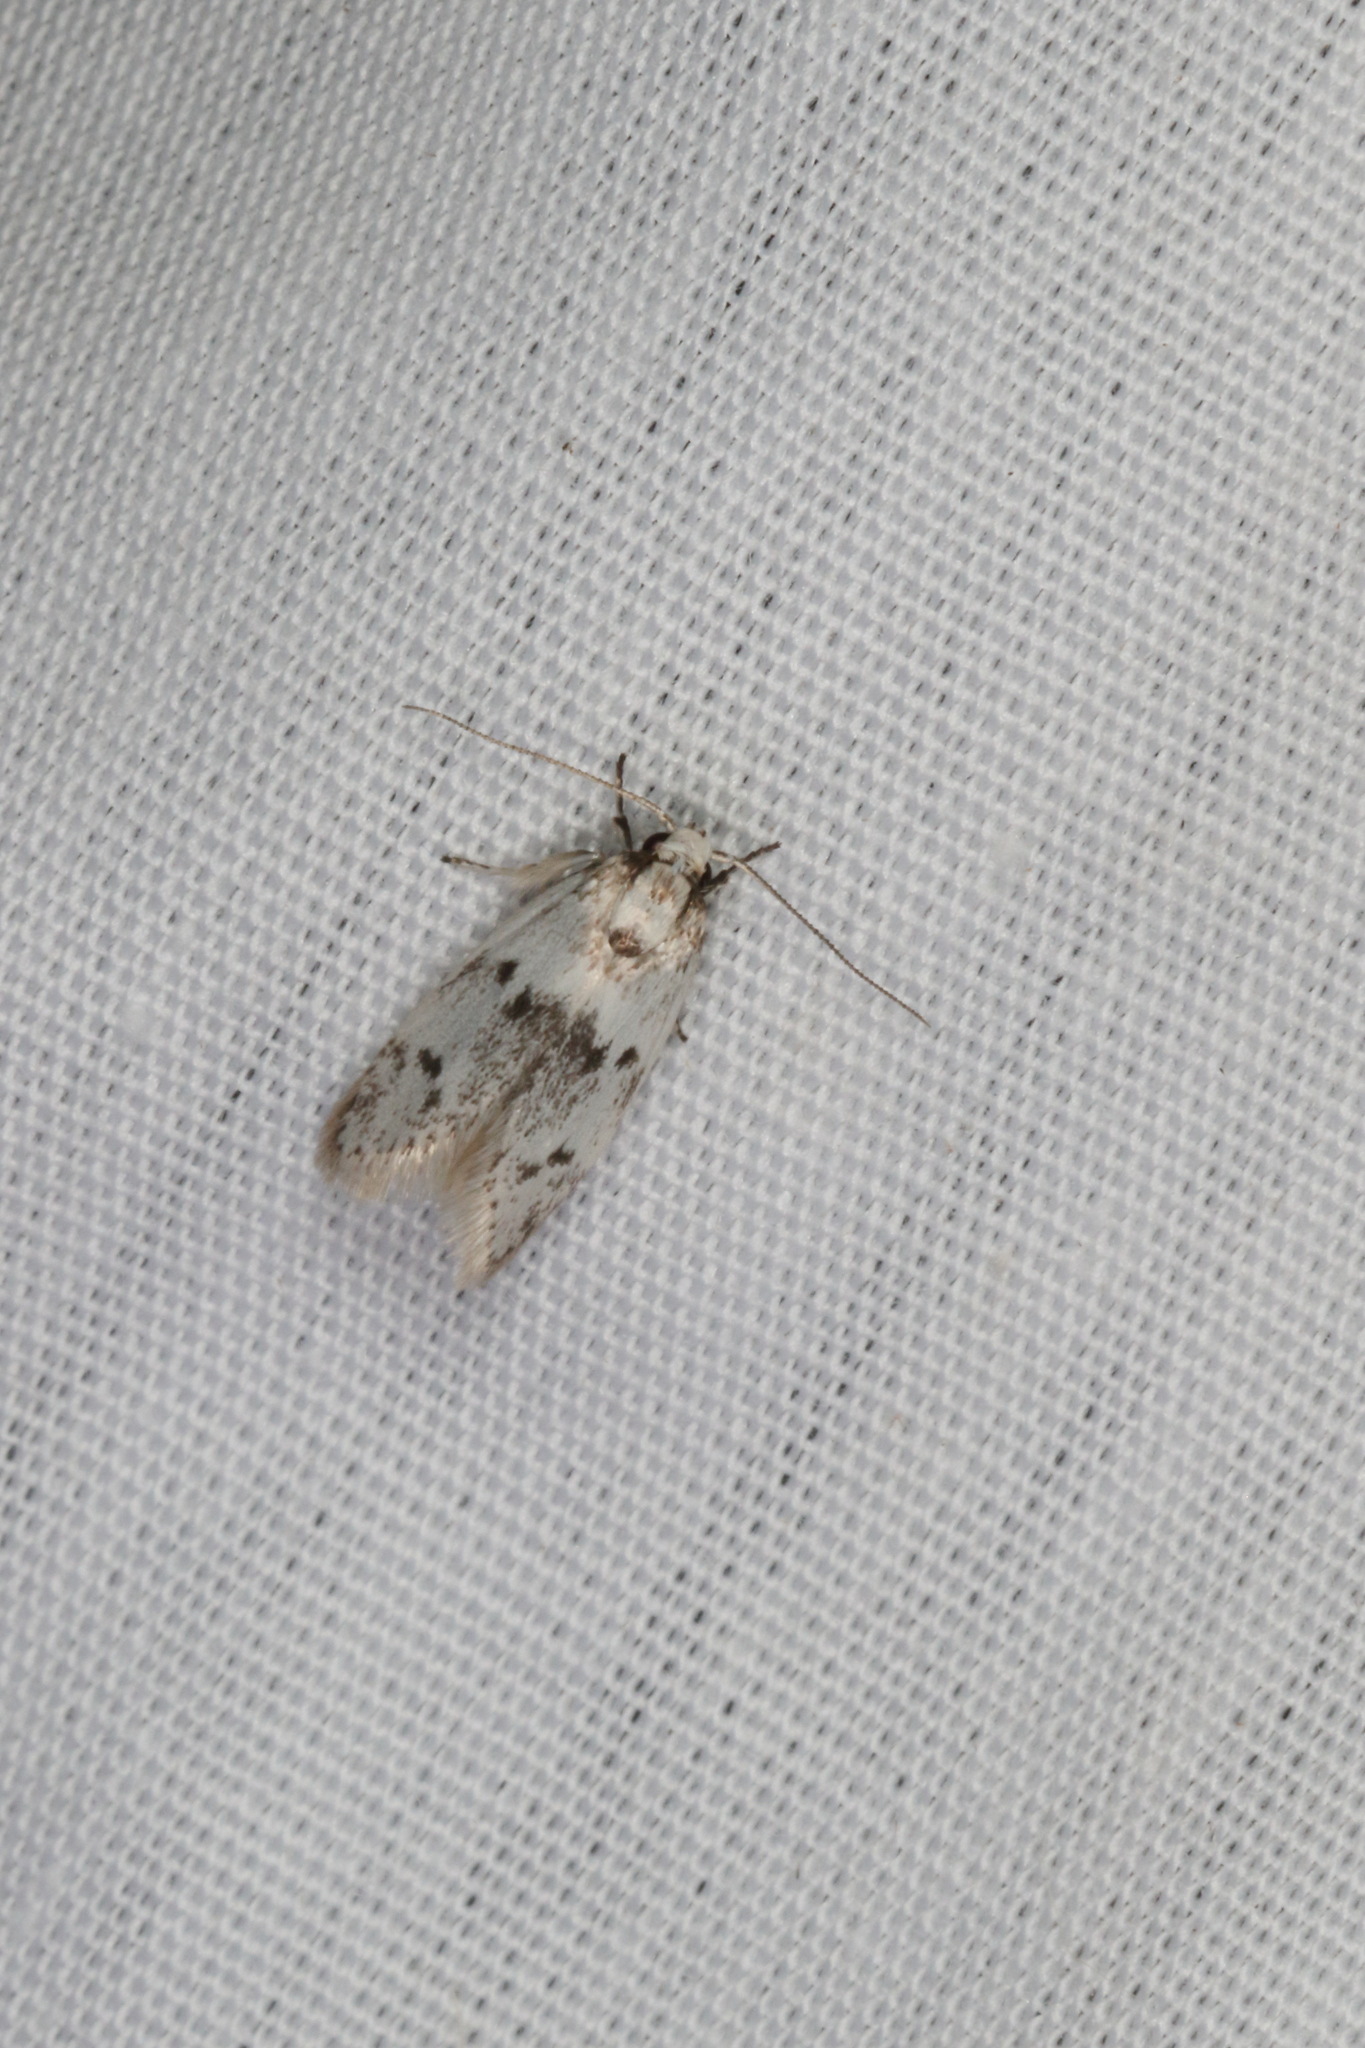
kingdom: Animalia
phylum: Arthropoda
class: Insecta
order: Lepidoptera
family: Oecophoridae
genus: Trachypepla
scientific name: Trachypepla indolescens
